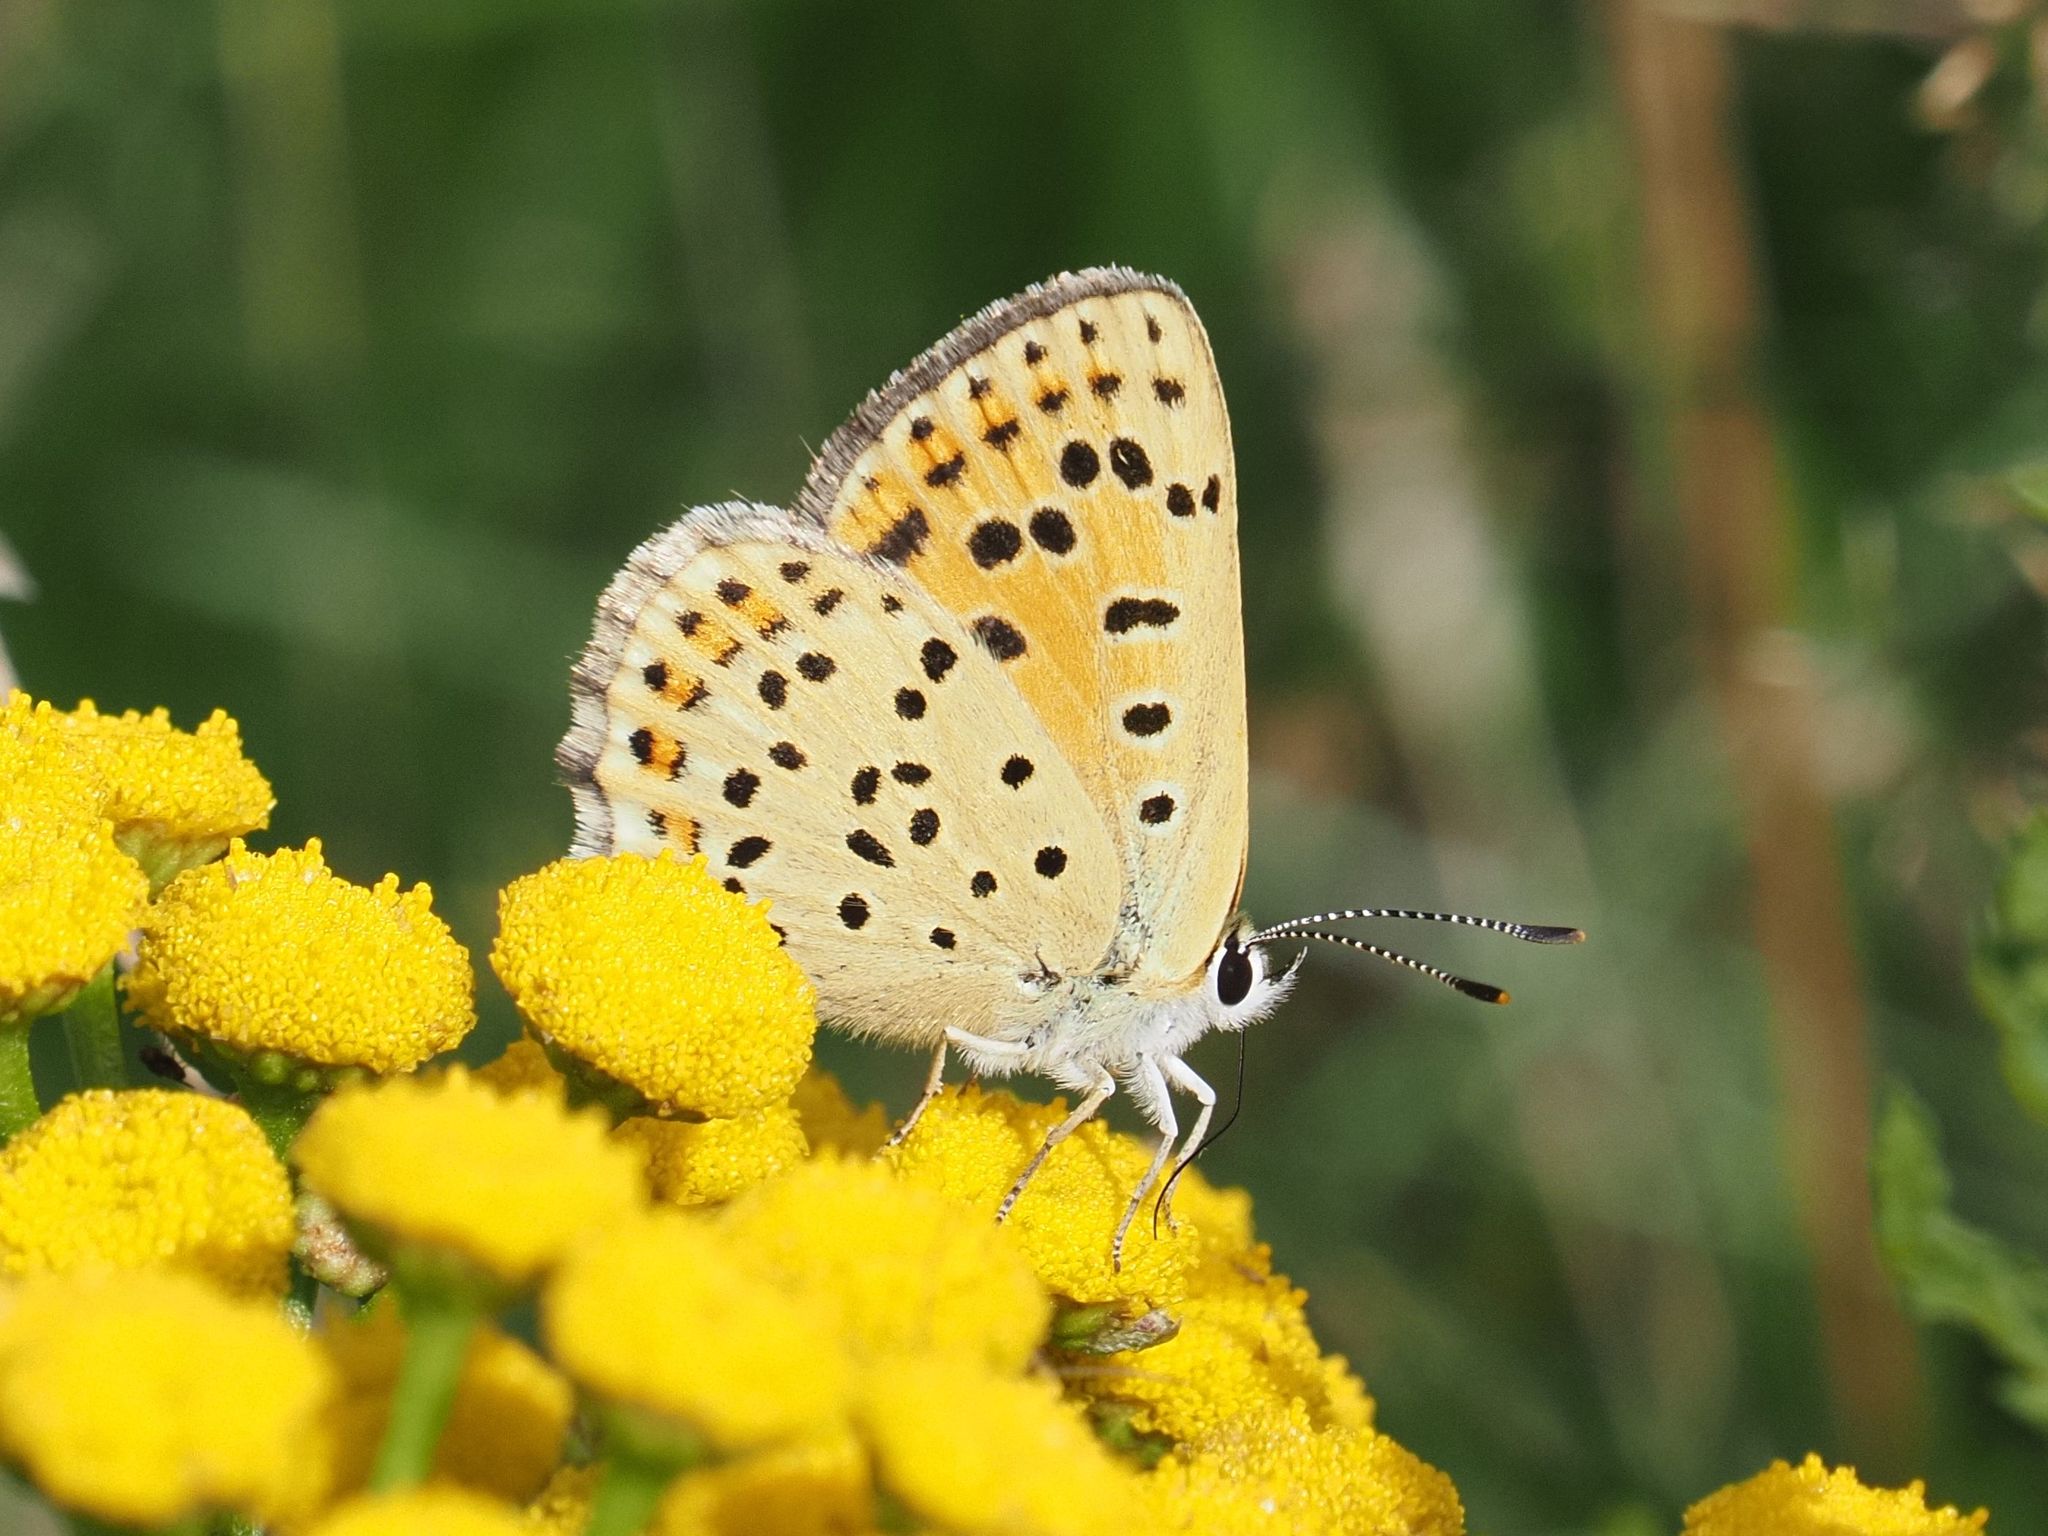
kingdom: Animalia
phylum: Arthropoda
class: Insecta
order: Lepidoptera
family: Lycaenidae
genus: Loweia
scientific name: Loweia tityrus
